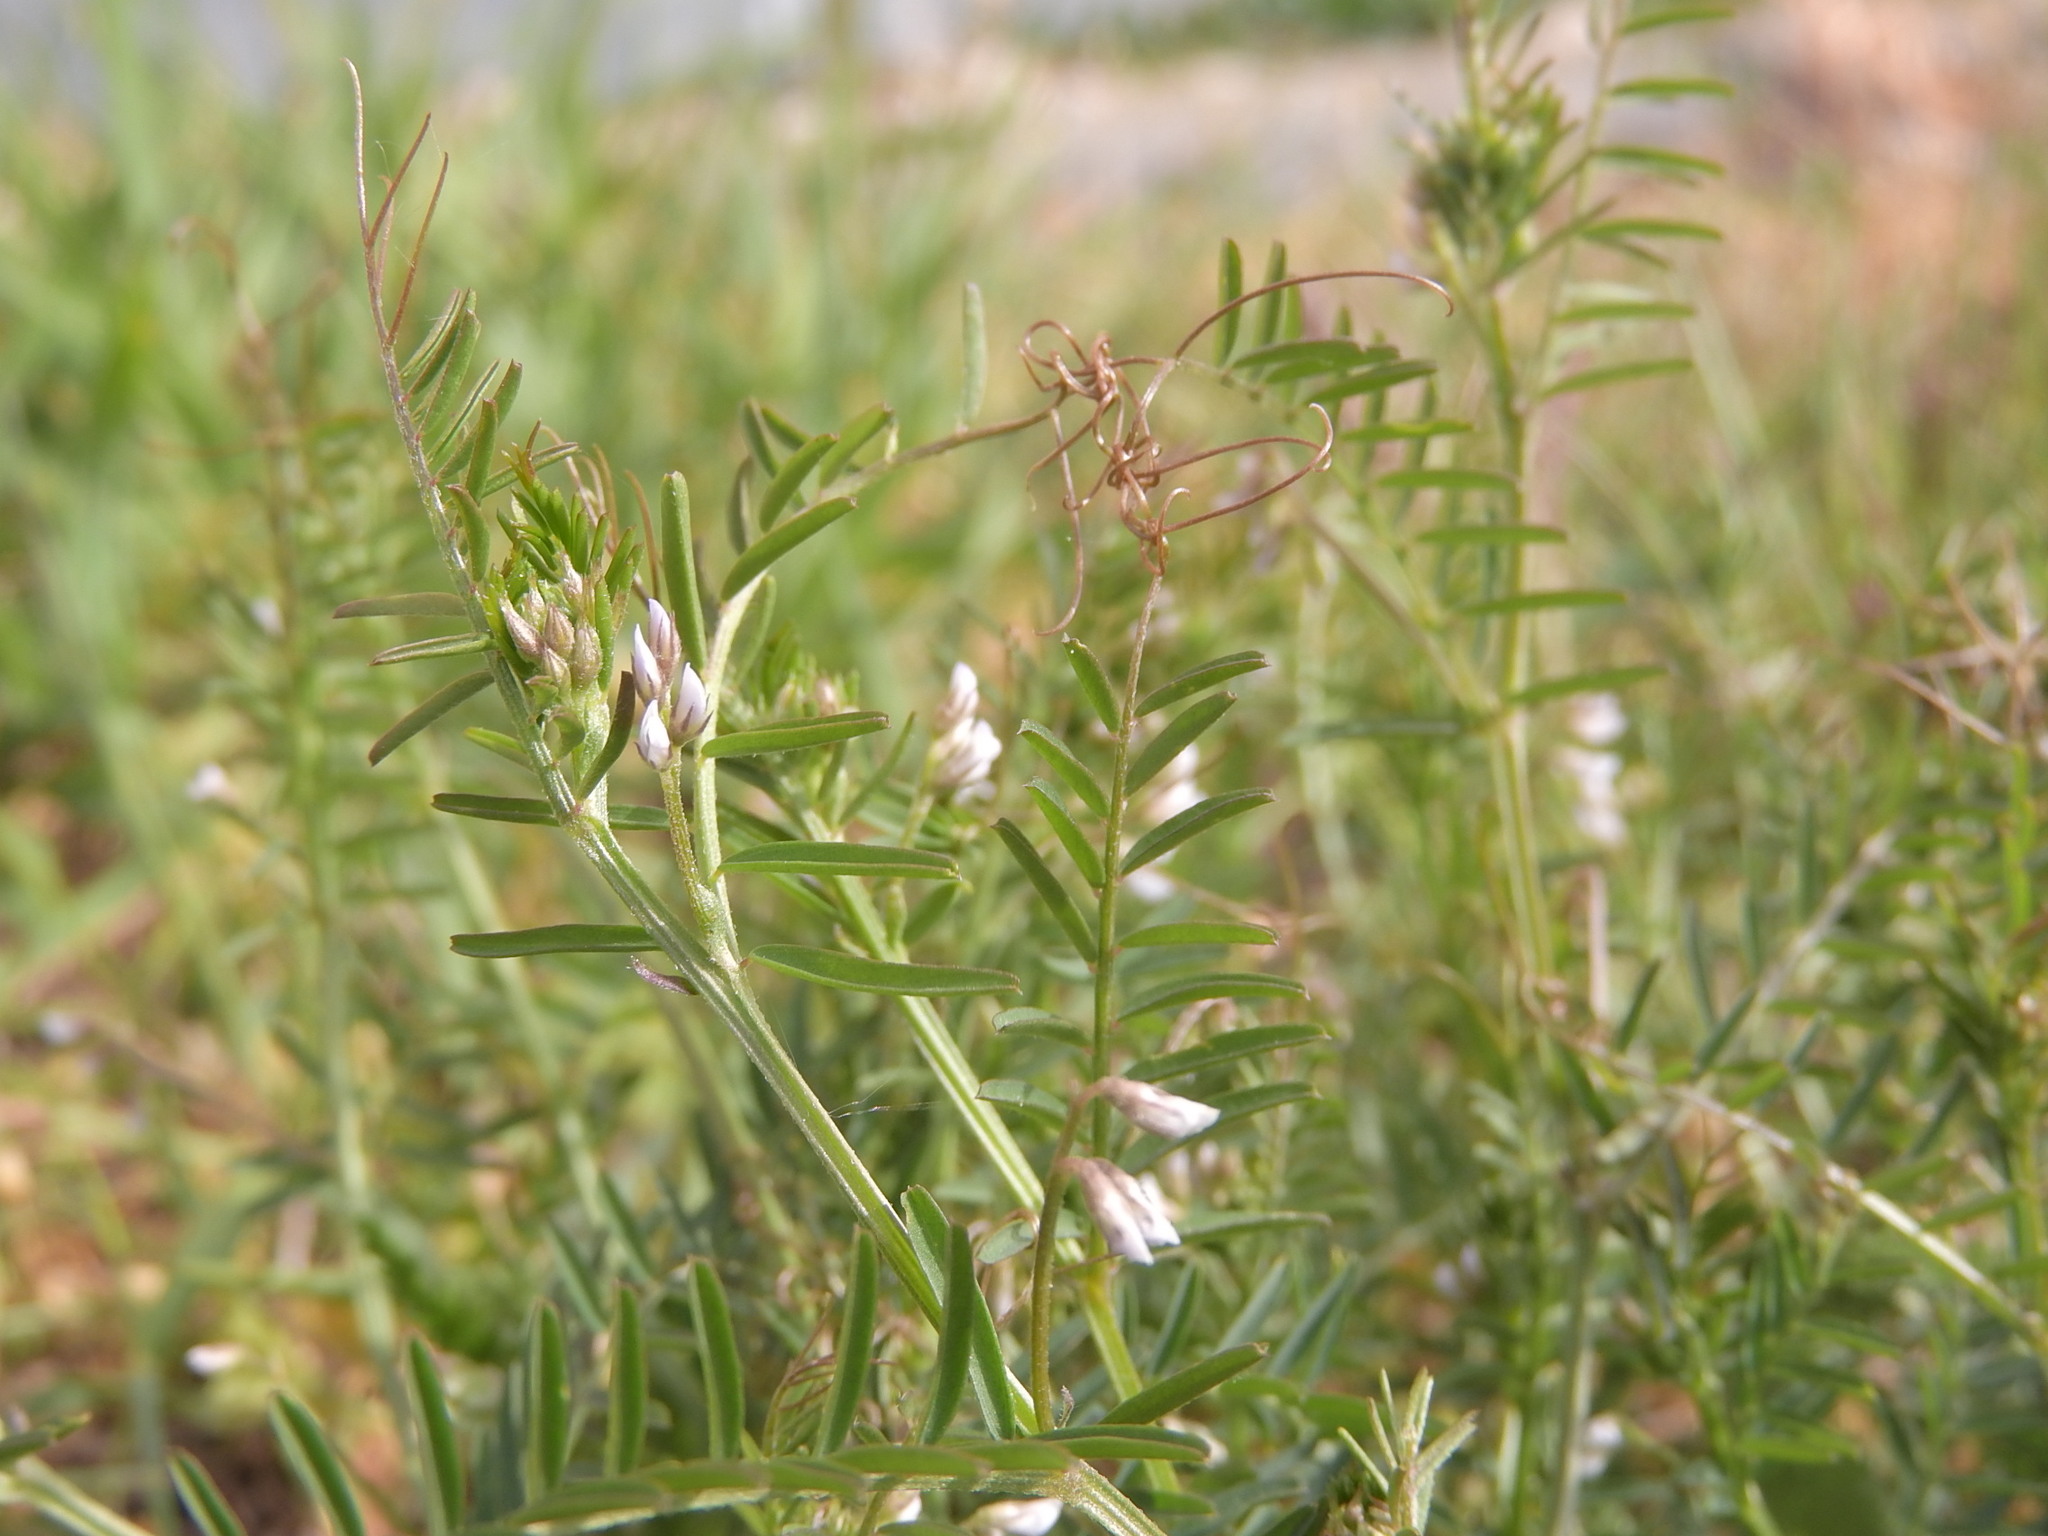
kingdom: Plantae
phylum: Tracheophyta
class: Magnoliopsida
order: Fabales
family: Fabaceae
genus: Vicia
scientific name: Vicia hirsuta
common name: Tiny vetch
